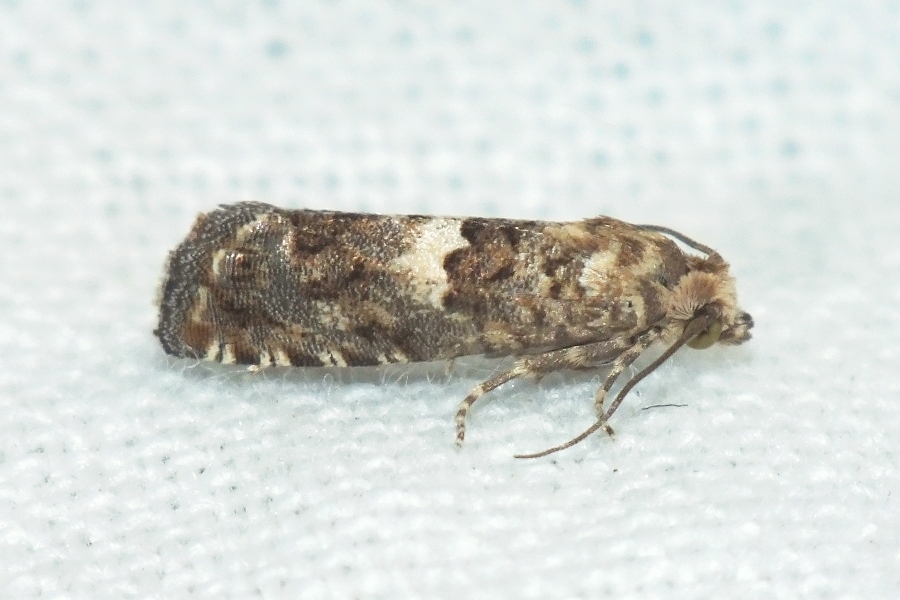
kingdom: Animalia
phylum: Arthropoda
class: Insecta
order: Lepidoptera
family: Tortricidae
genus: Epiblema
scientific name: Epiblema graphana
